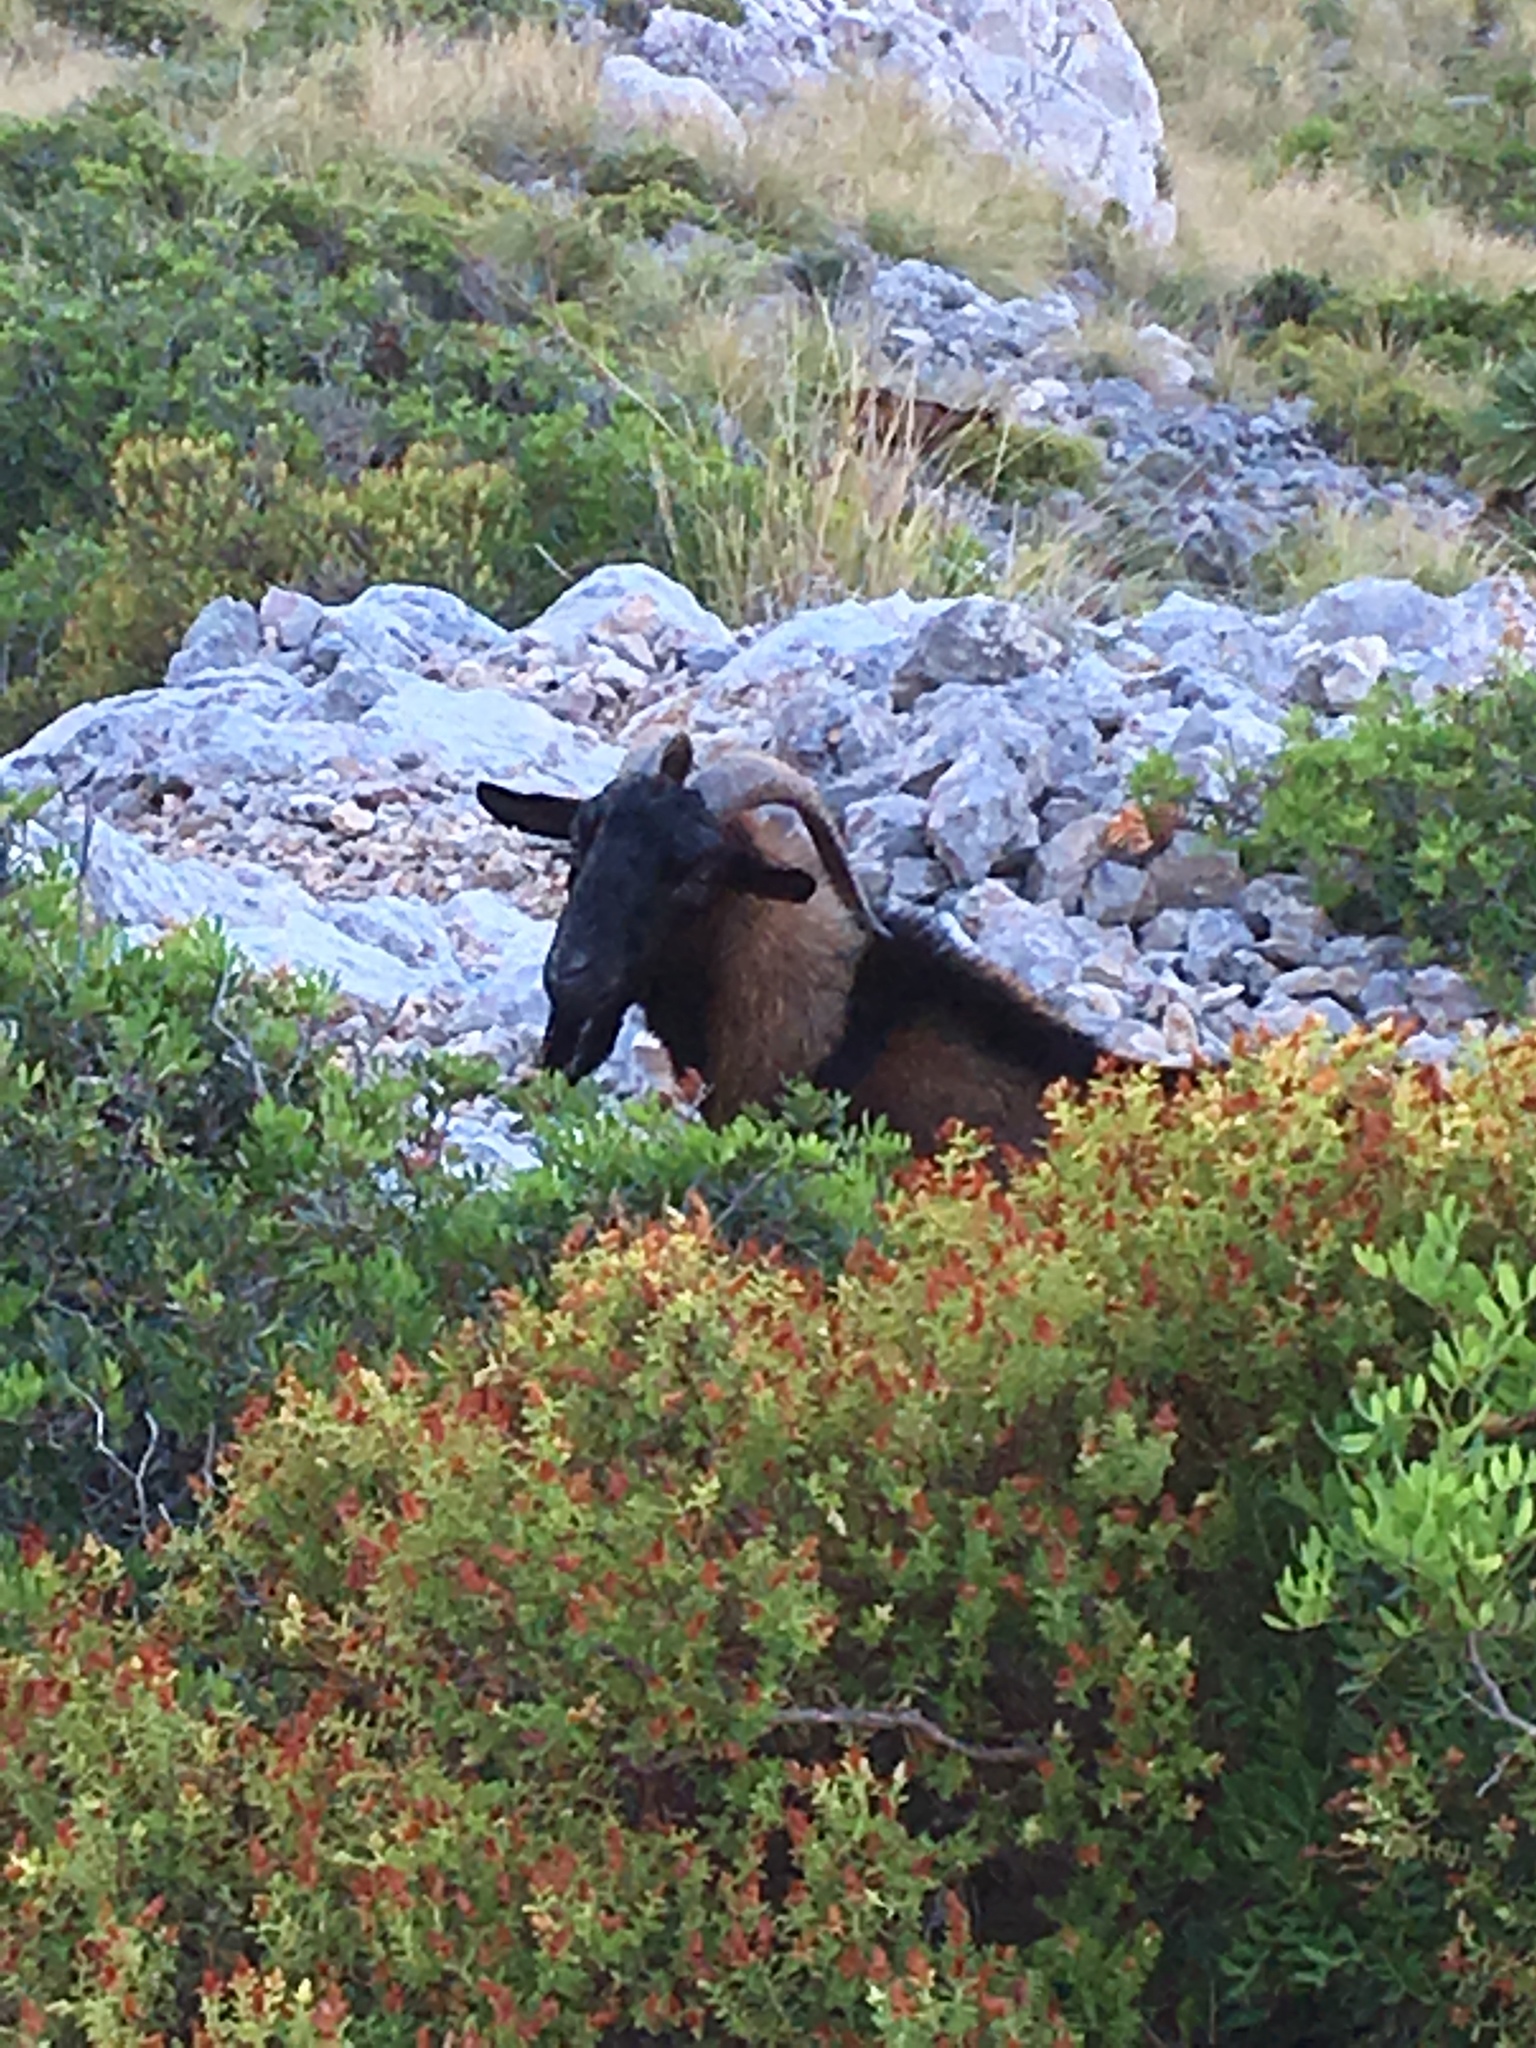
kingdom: Animalia
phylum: Chordata
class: Mammalia
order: Artiodactyla
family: Bovidae
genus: Capra
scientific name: Capra hircus
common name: Domestic goat
